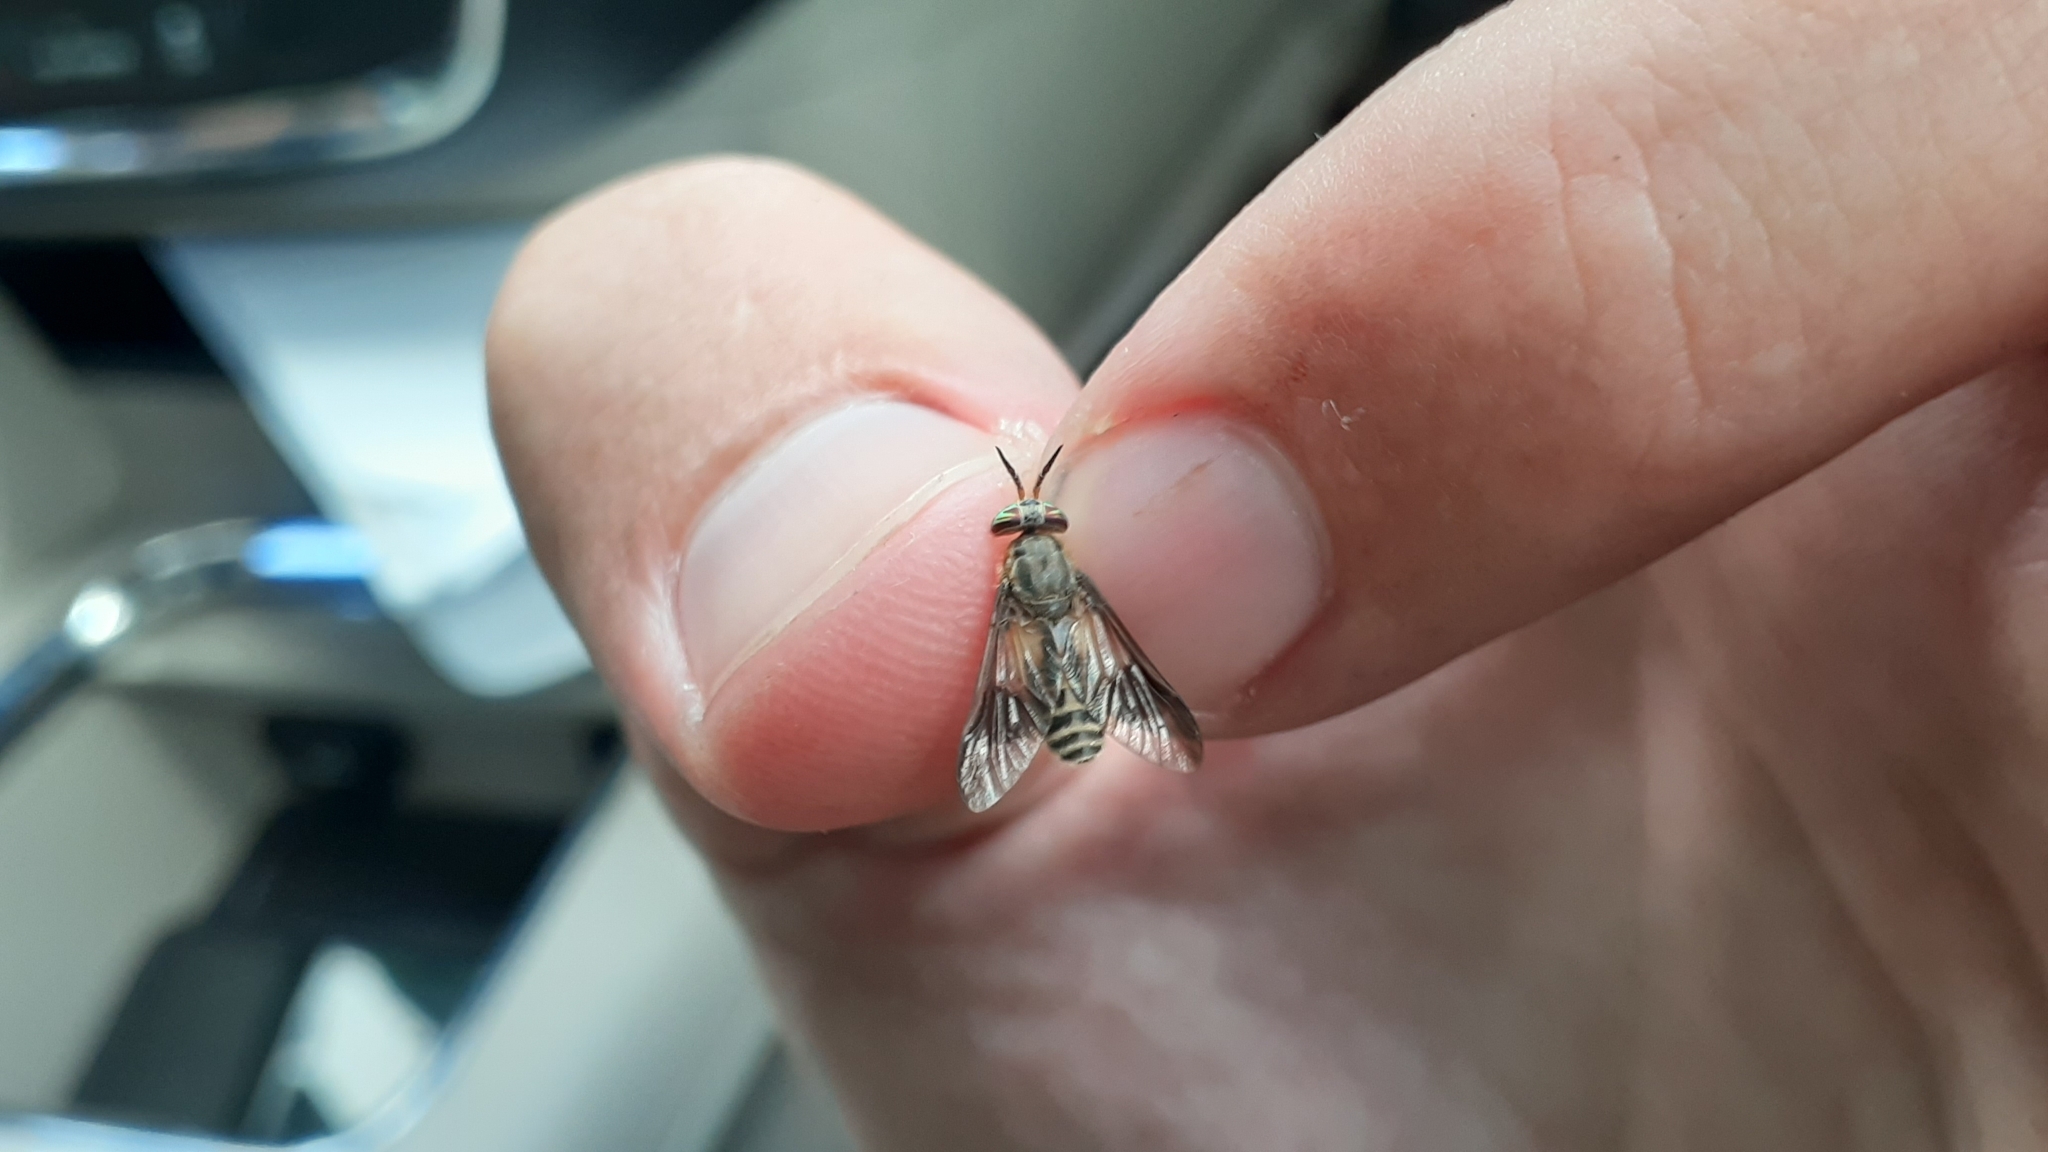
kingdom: Animalia
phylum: Arthropoda
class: Insecta
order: Diptera
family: Tabanidae
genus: Chrysops
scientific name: Chrysops montanus
